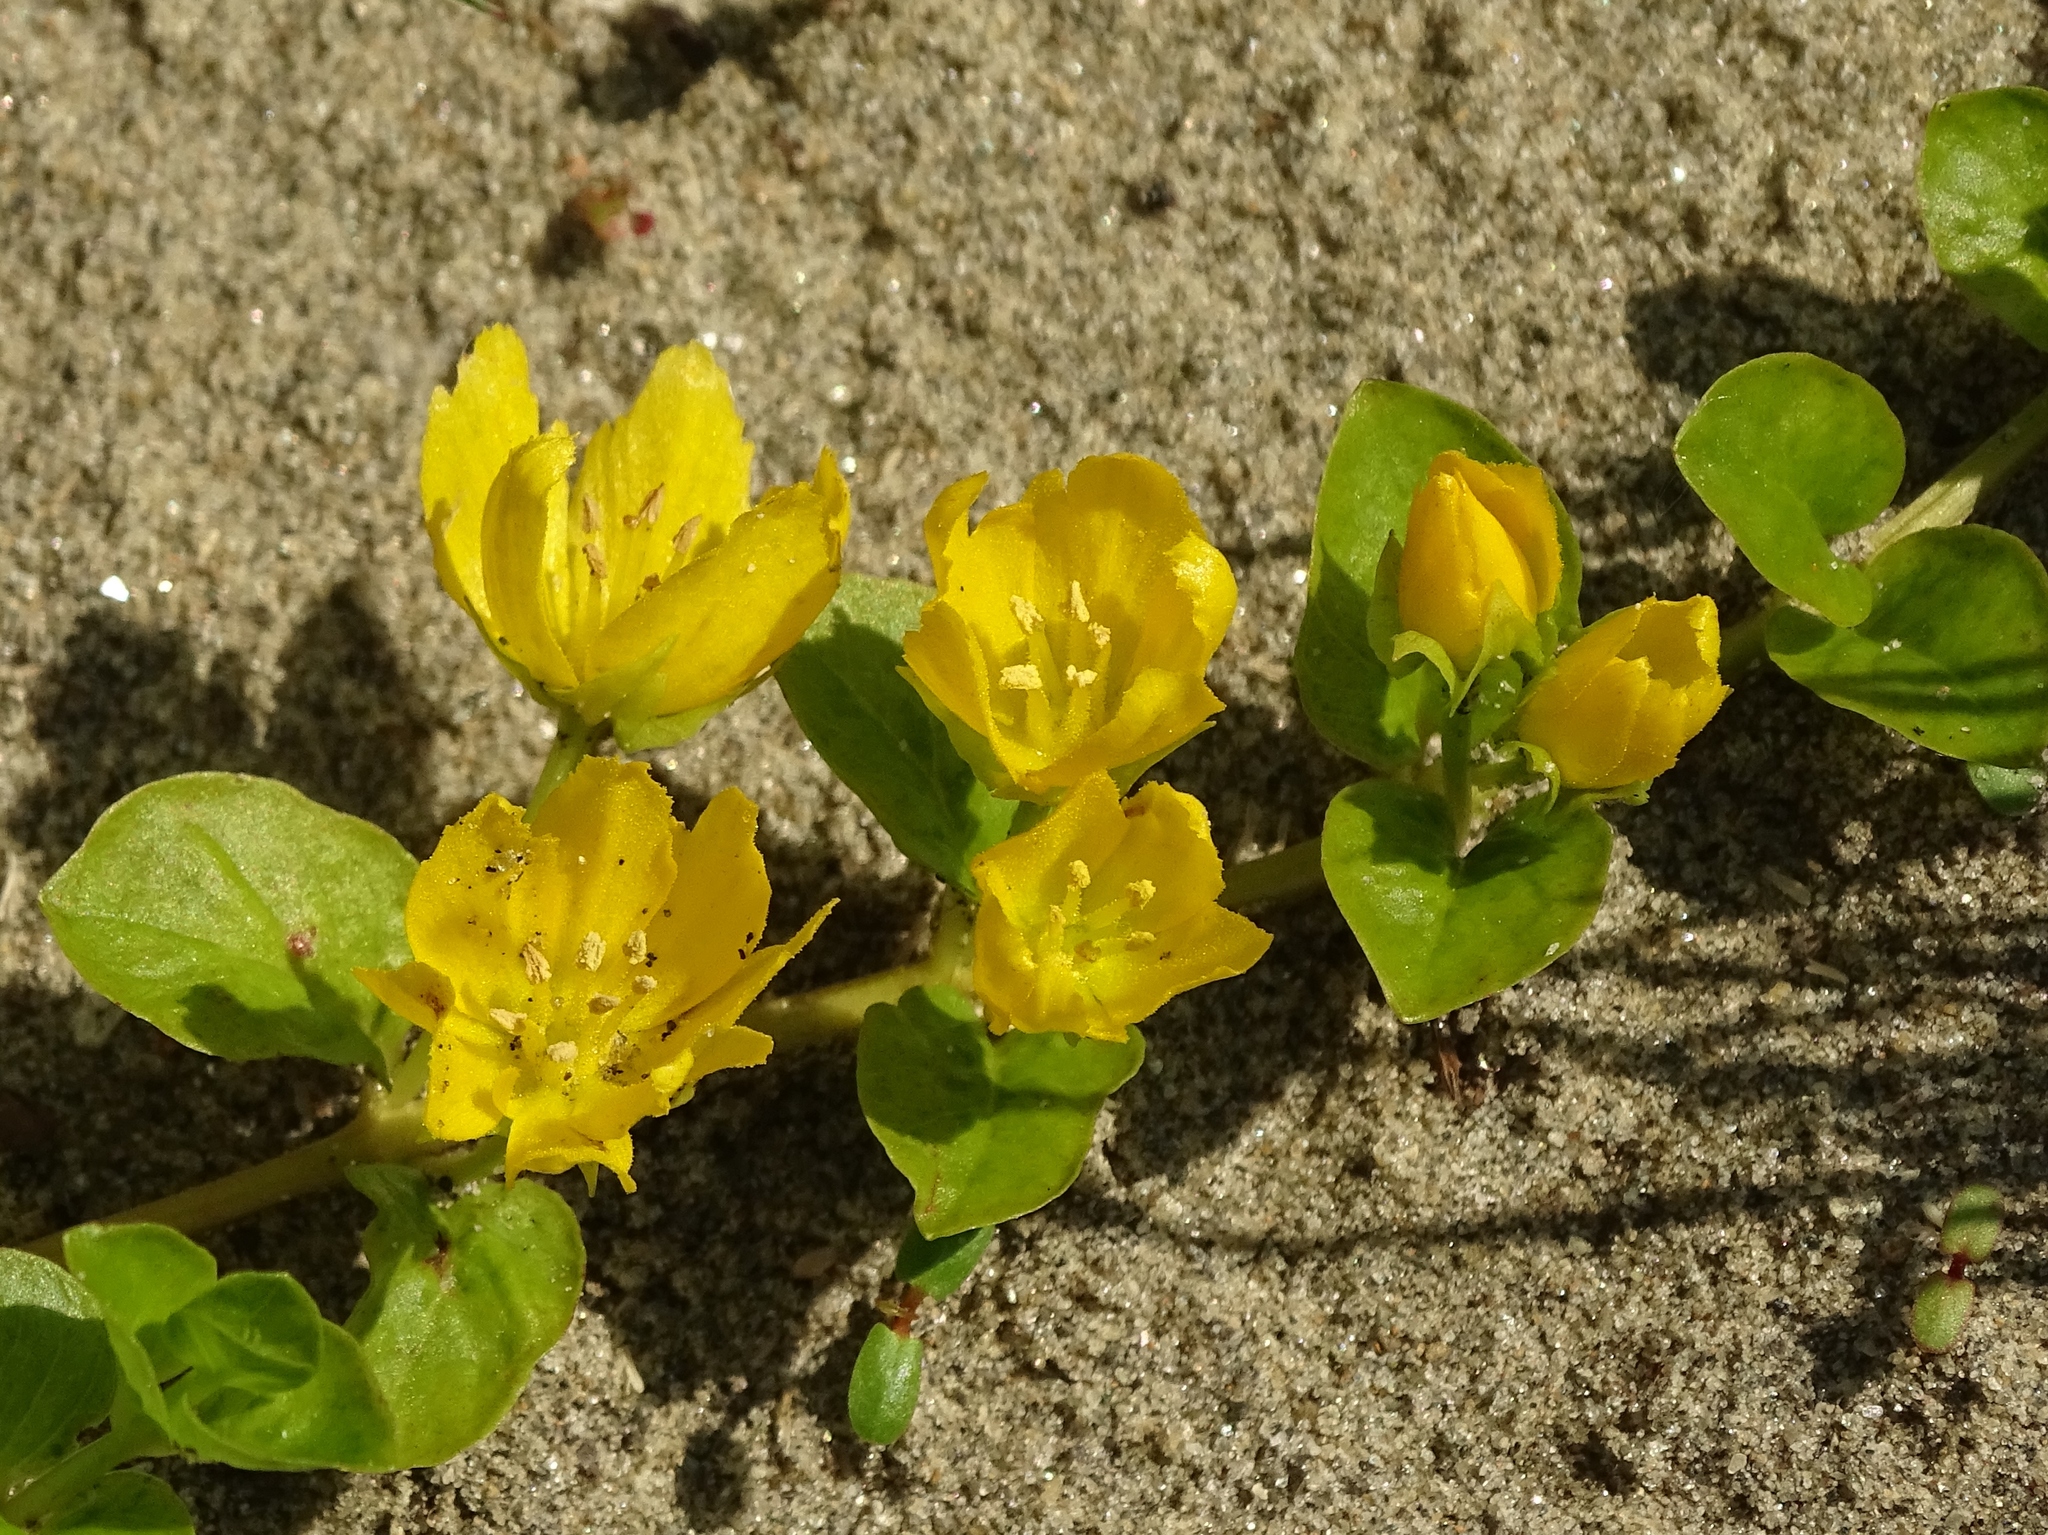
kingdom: Plantae
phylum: Tracheophyta
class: Magnoliopsida
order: Ericales
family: Primulaceae
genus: Lysimachia
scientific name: Lysimachia nummularia
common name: Moneywort
